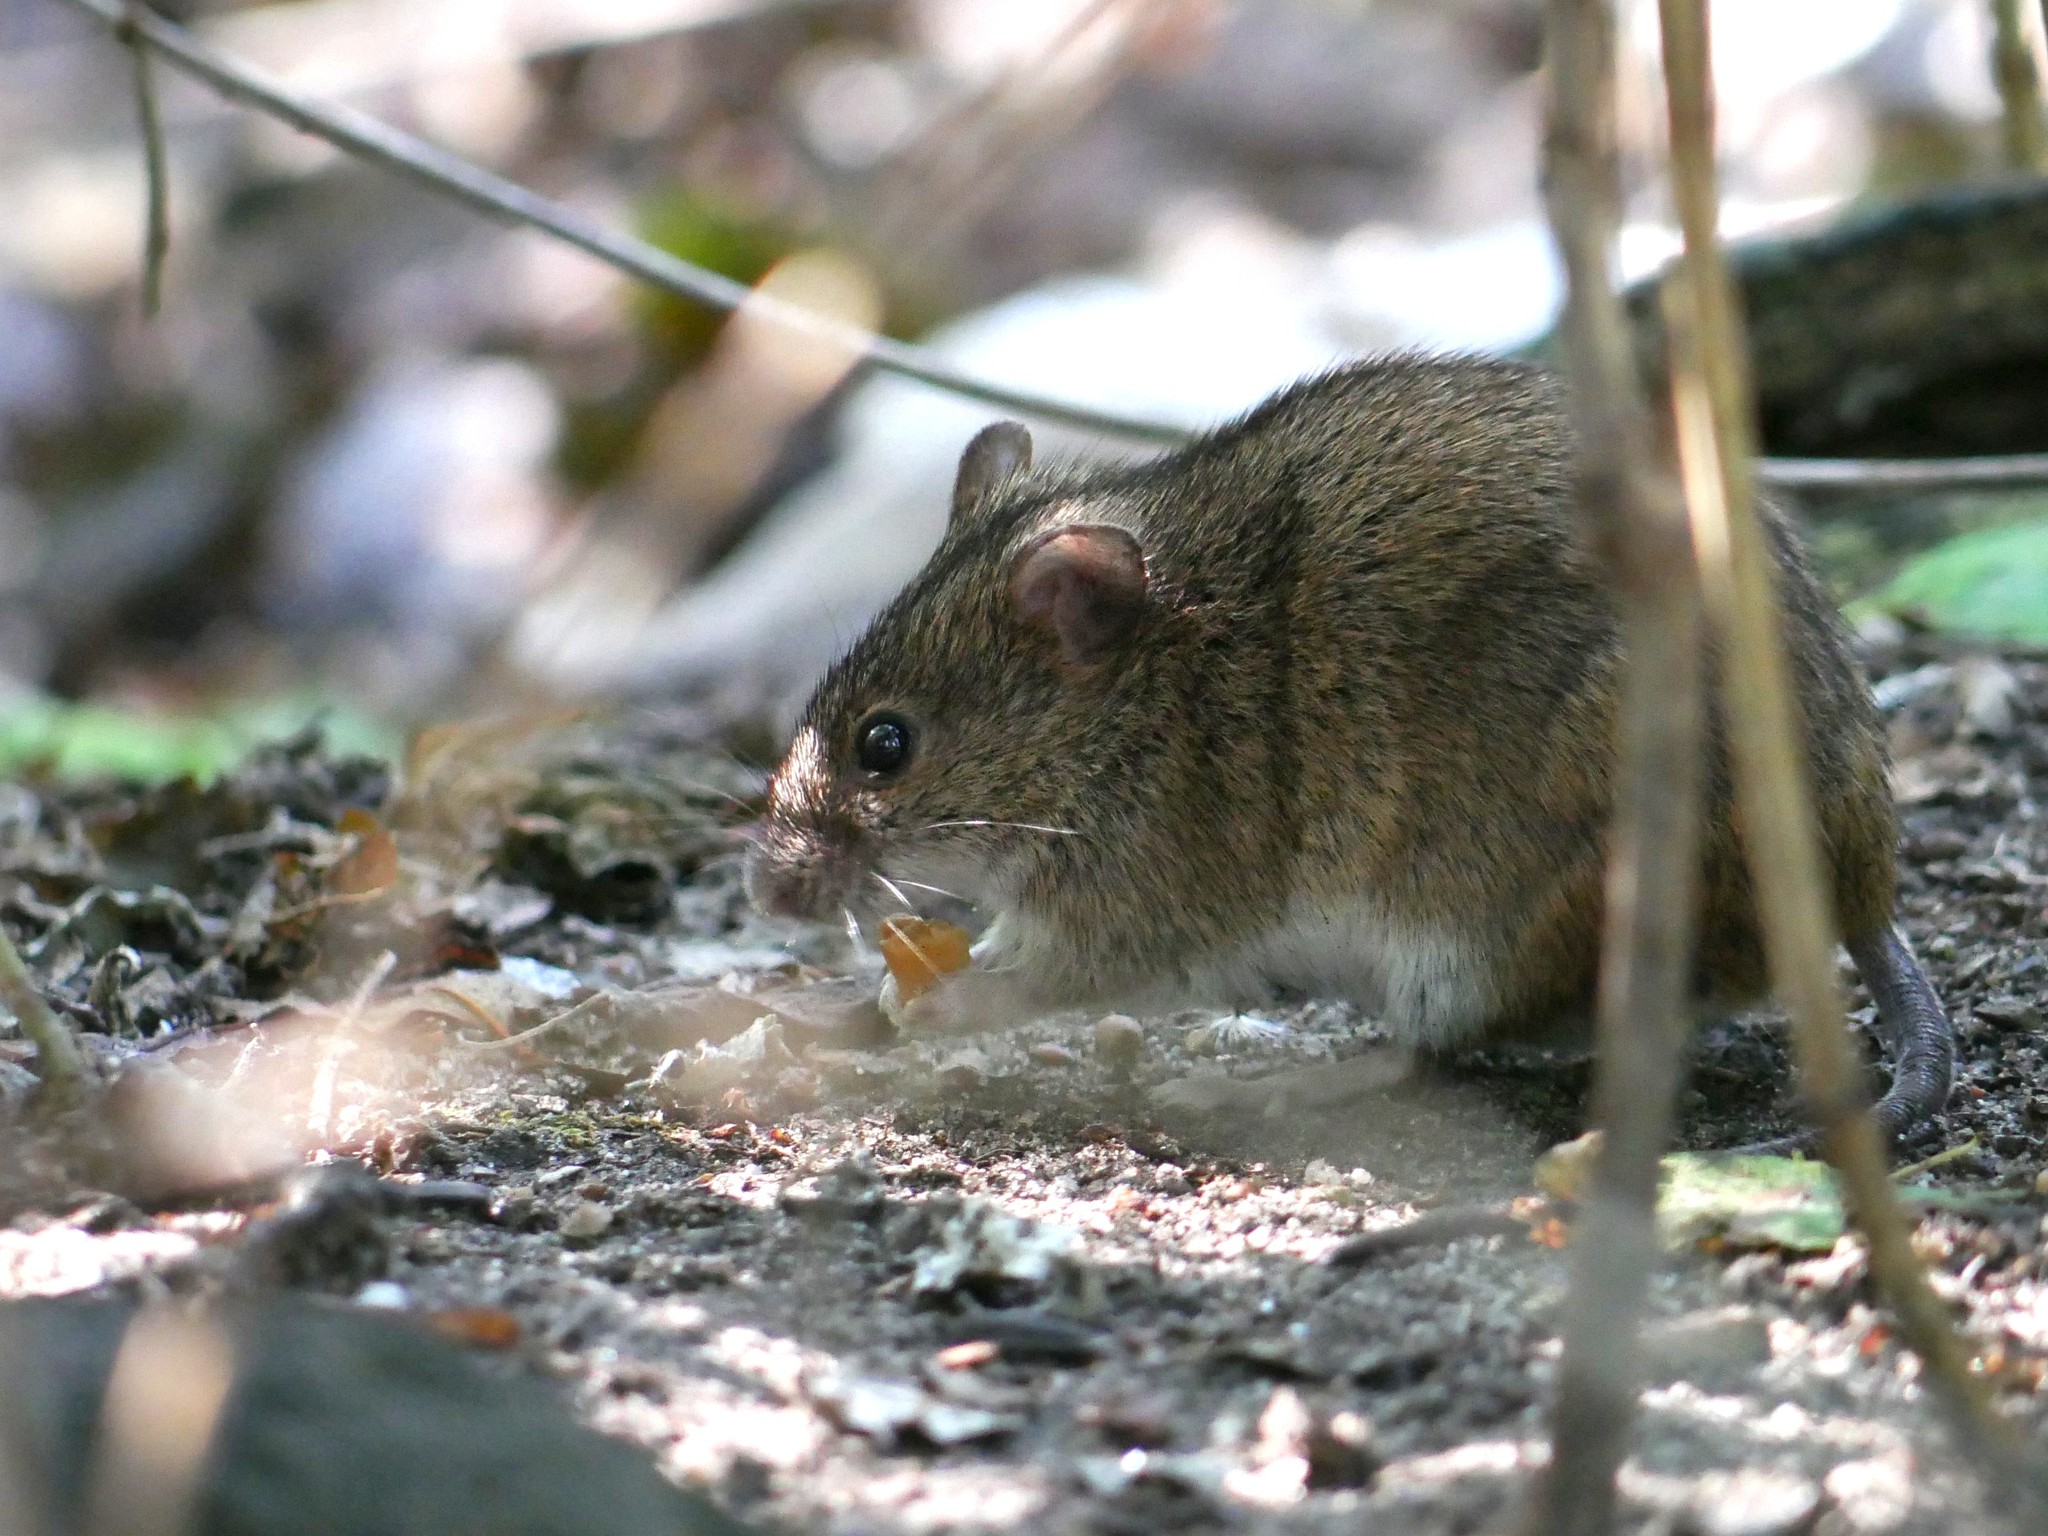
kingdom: Animalia
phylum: Chordata
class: Mammalia
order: Rodentia
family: Muridae
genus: Apodemus
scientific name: Apodemus agrarius
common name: Striped field mouse
